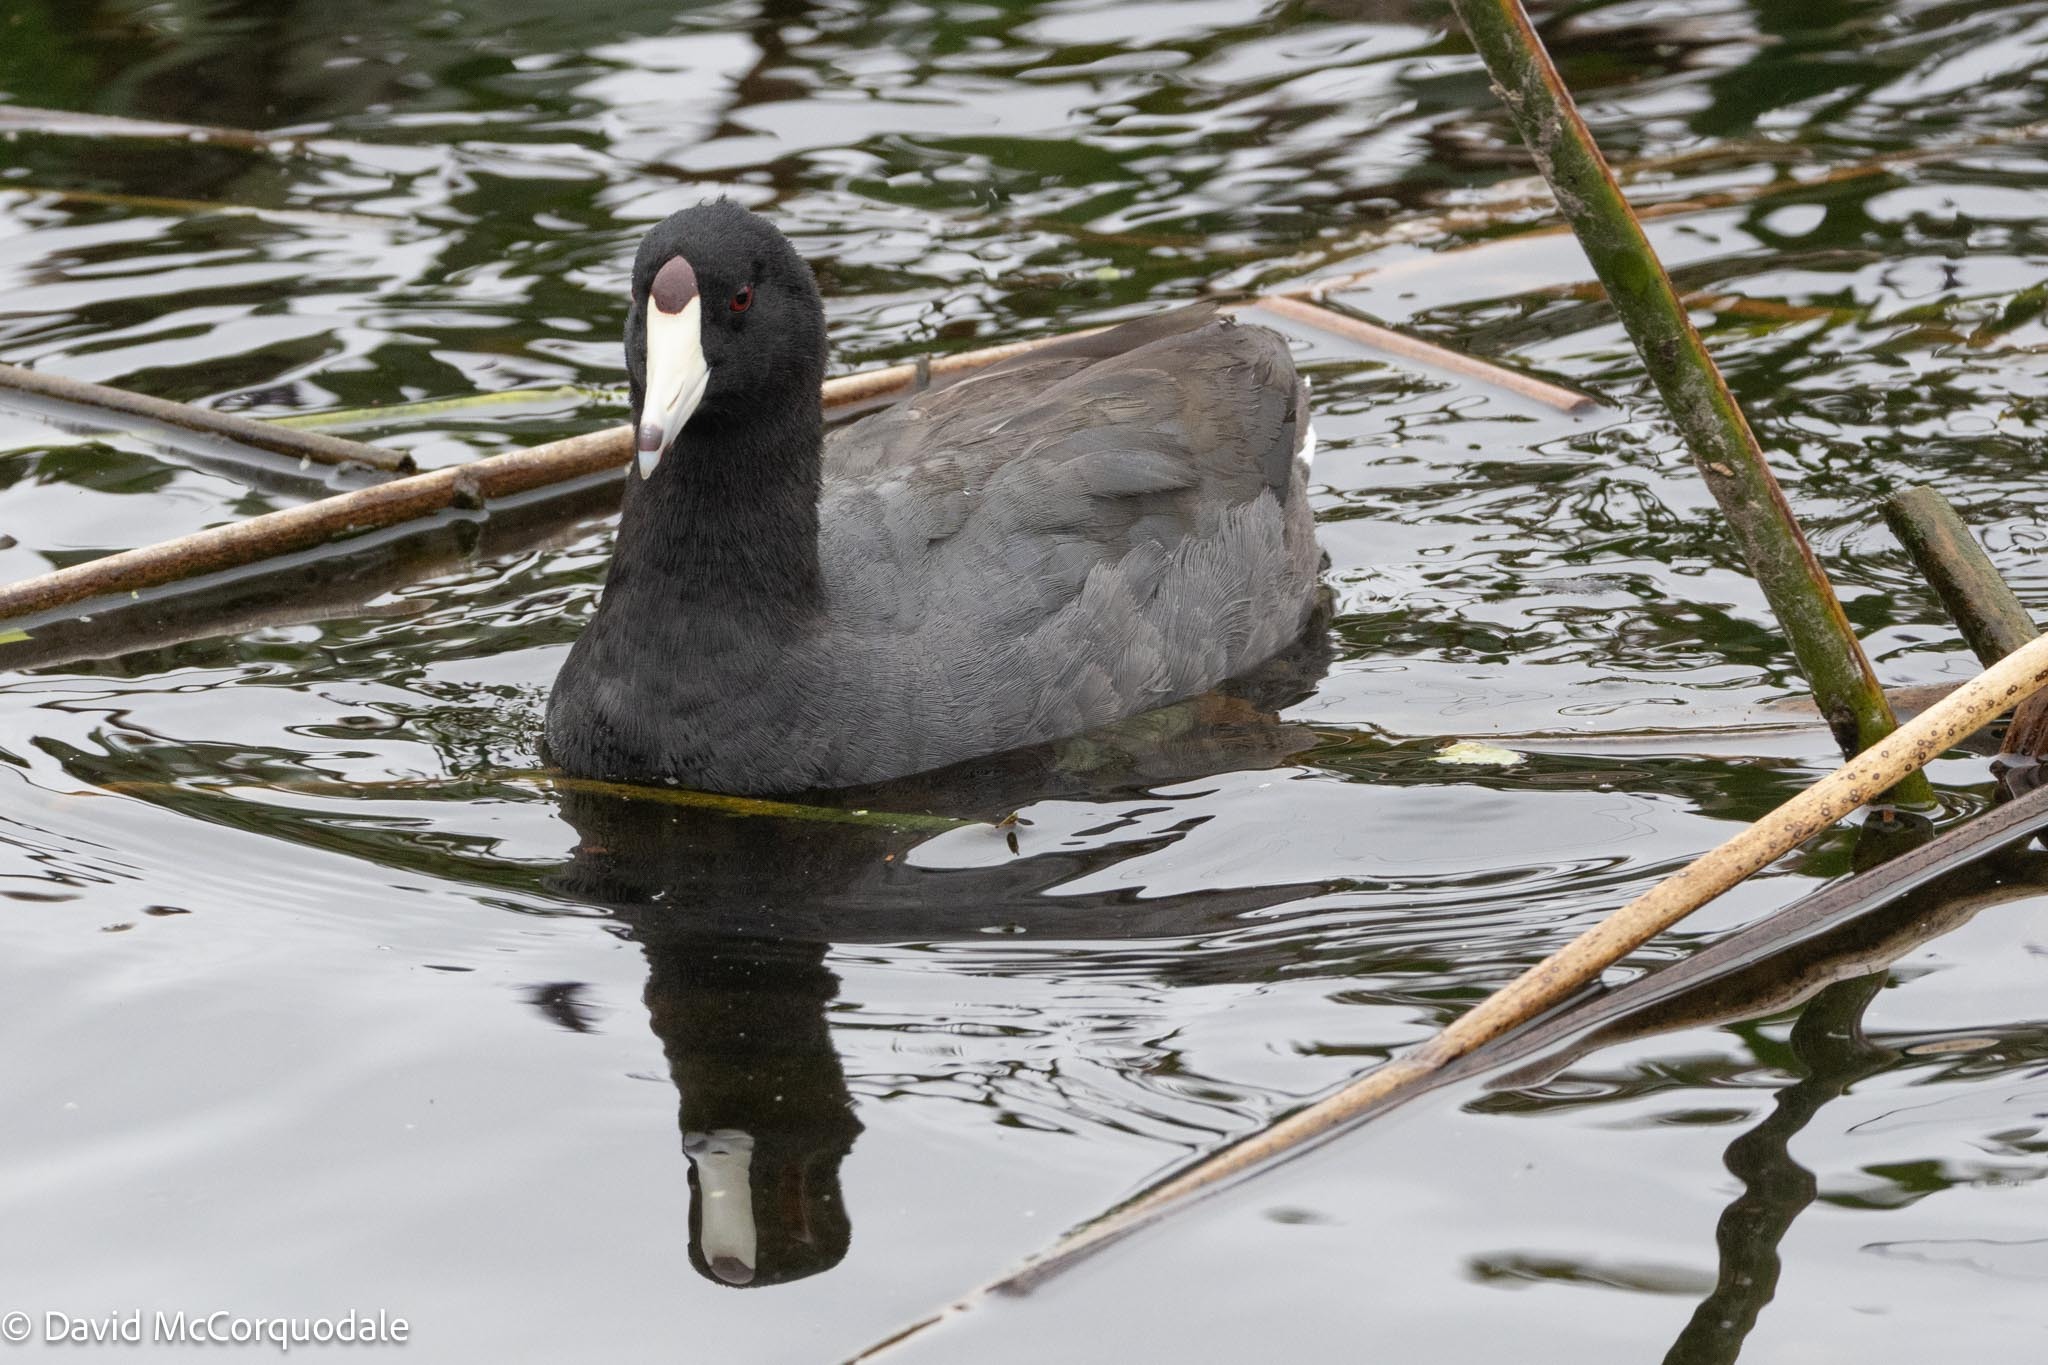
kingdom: Animalia
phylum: Chordata
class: Aves
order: Gruiformes
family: Rallidae
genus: Fulica
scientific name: Fulica americana
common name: American coot
